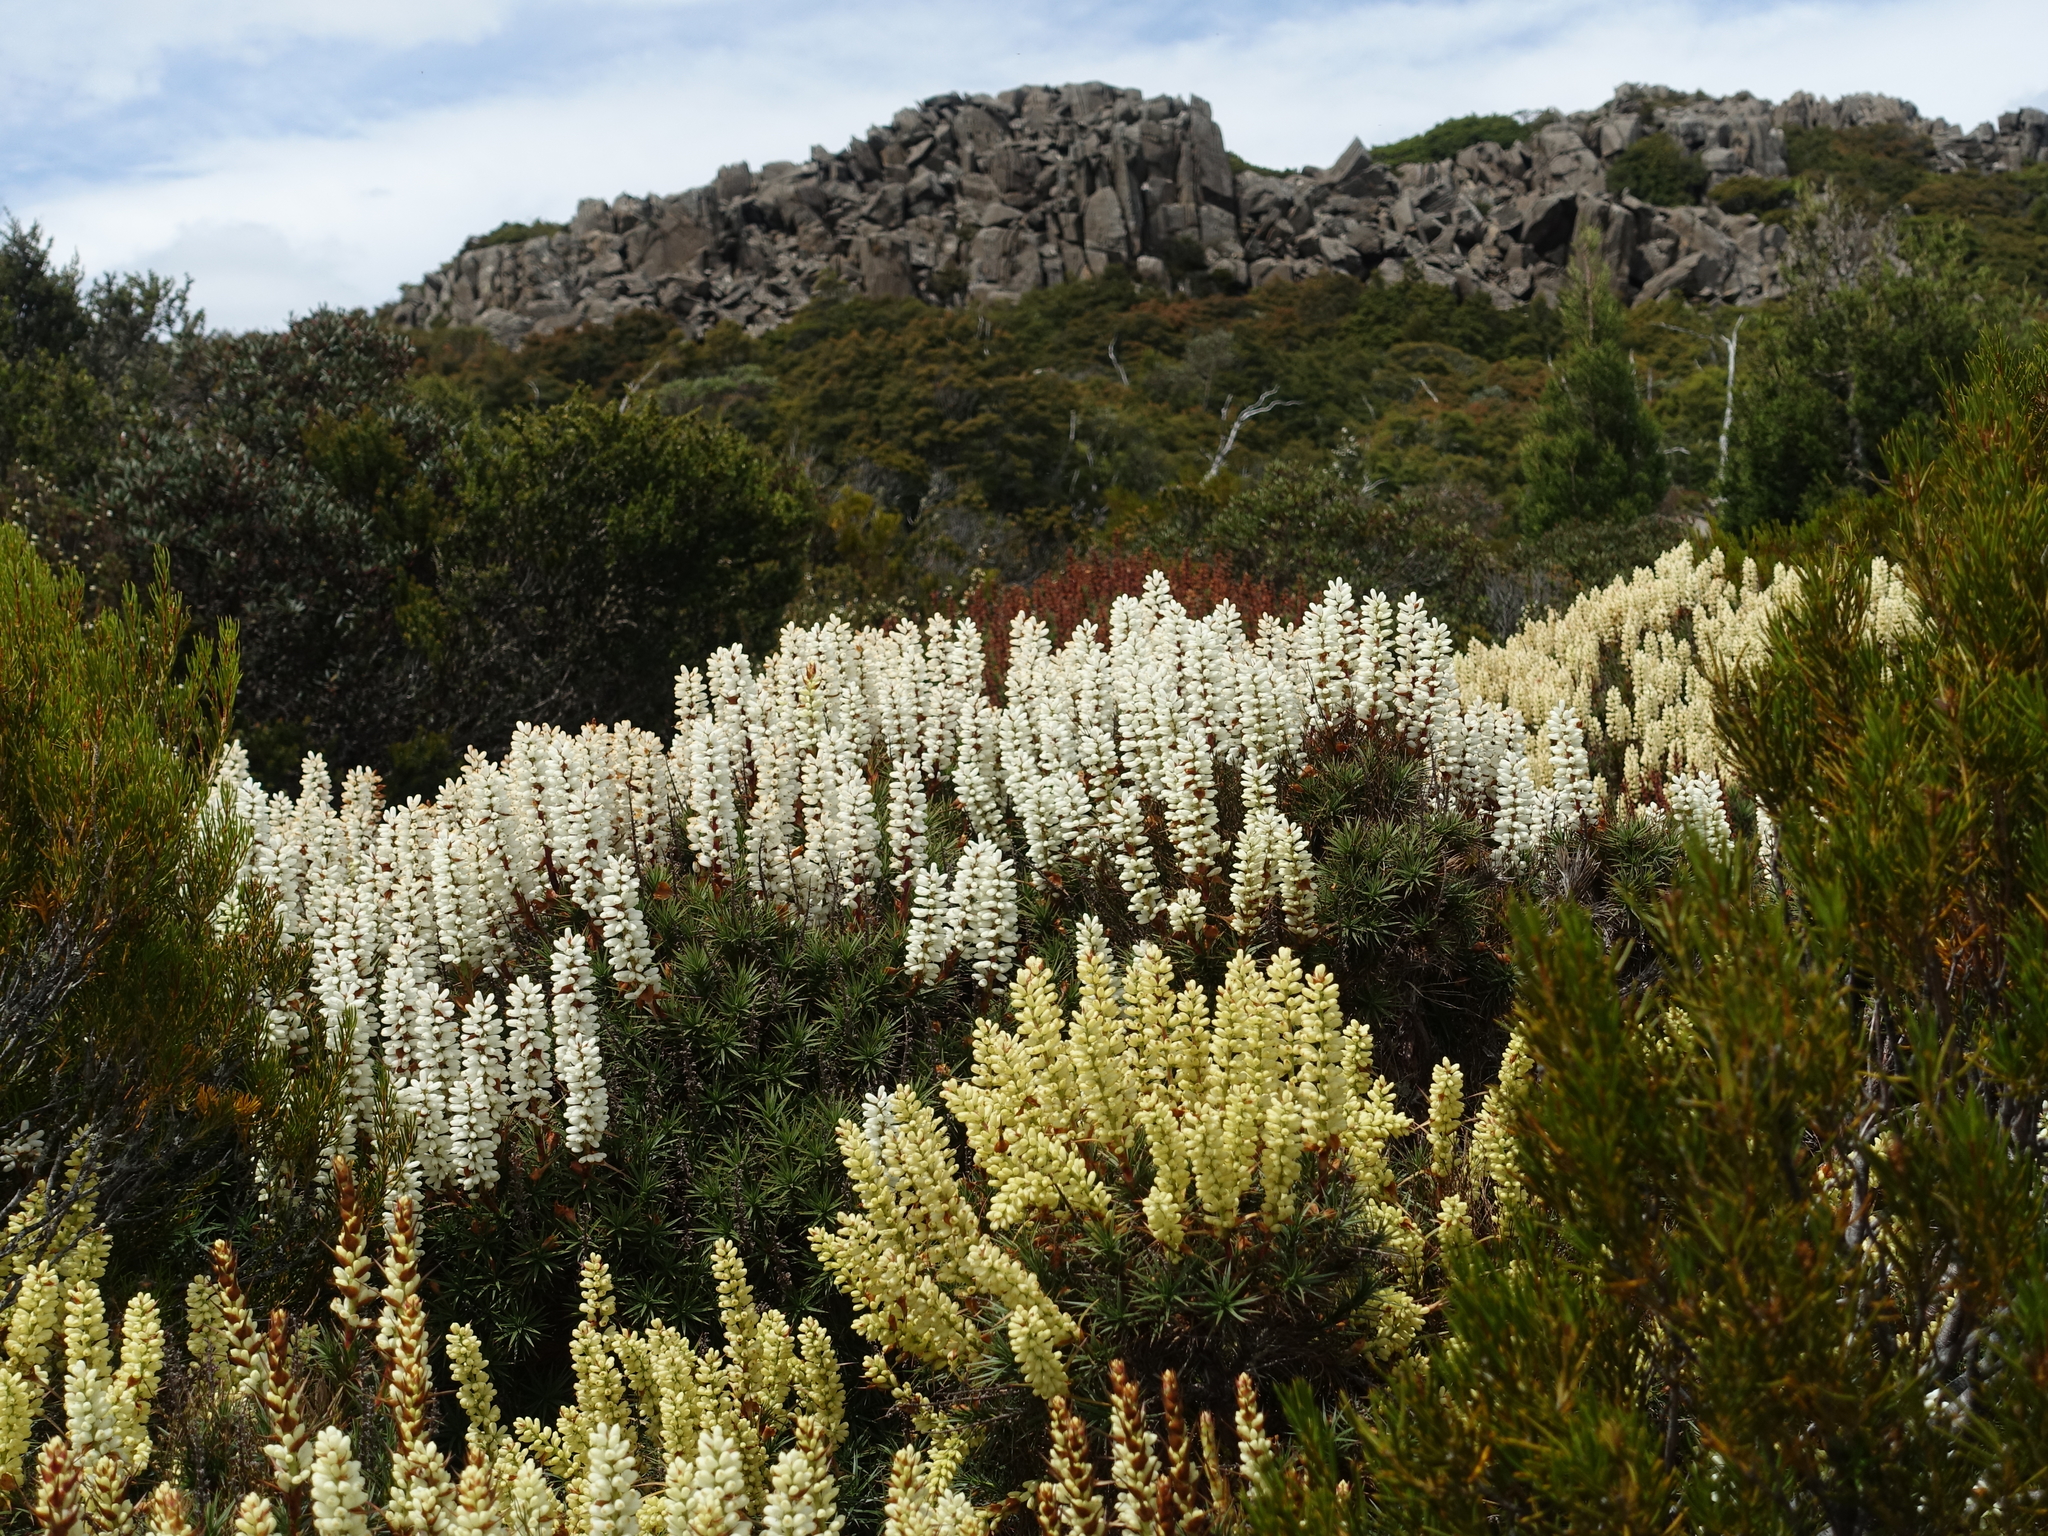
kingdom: Plantae
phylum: Tracheophyta
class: Magnoliopsida
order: Ericales
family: Ericaceae
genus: Dracophyllum
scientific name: Dracophyllum persistentifolium
